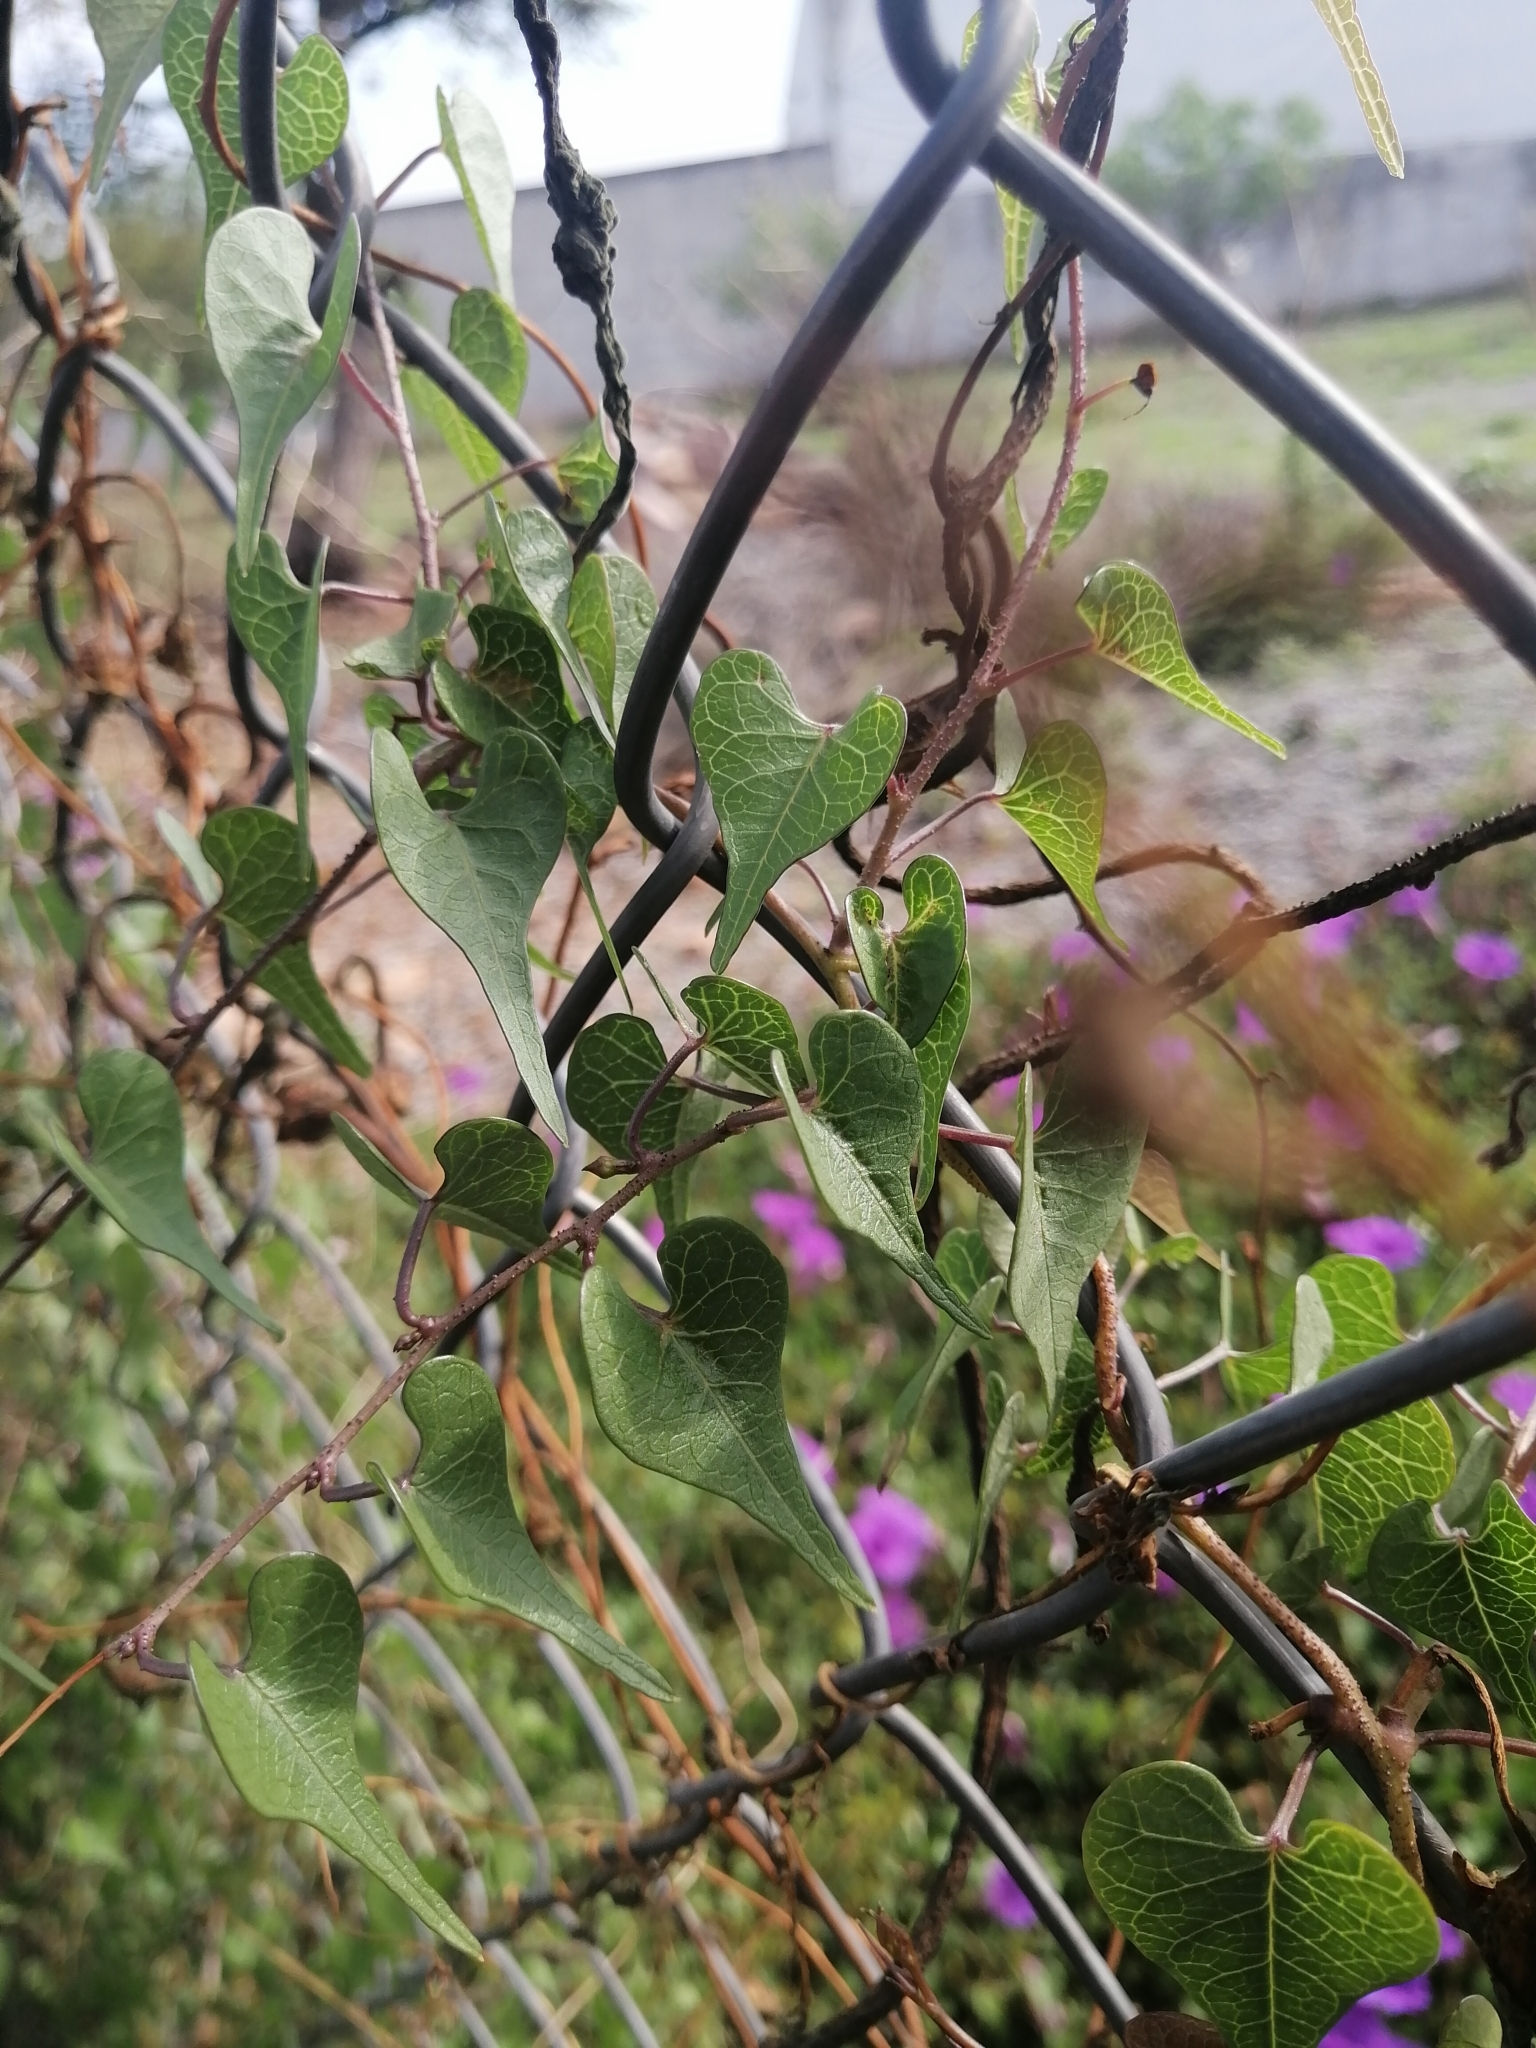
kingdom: Plantae
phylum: Tracheophyta
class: Magnoliopsida
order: Solanales
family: Convolvulaceae
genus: Ipomoea
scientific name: Ipomoea lozanii
